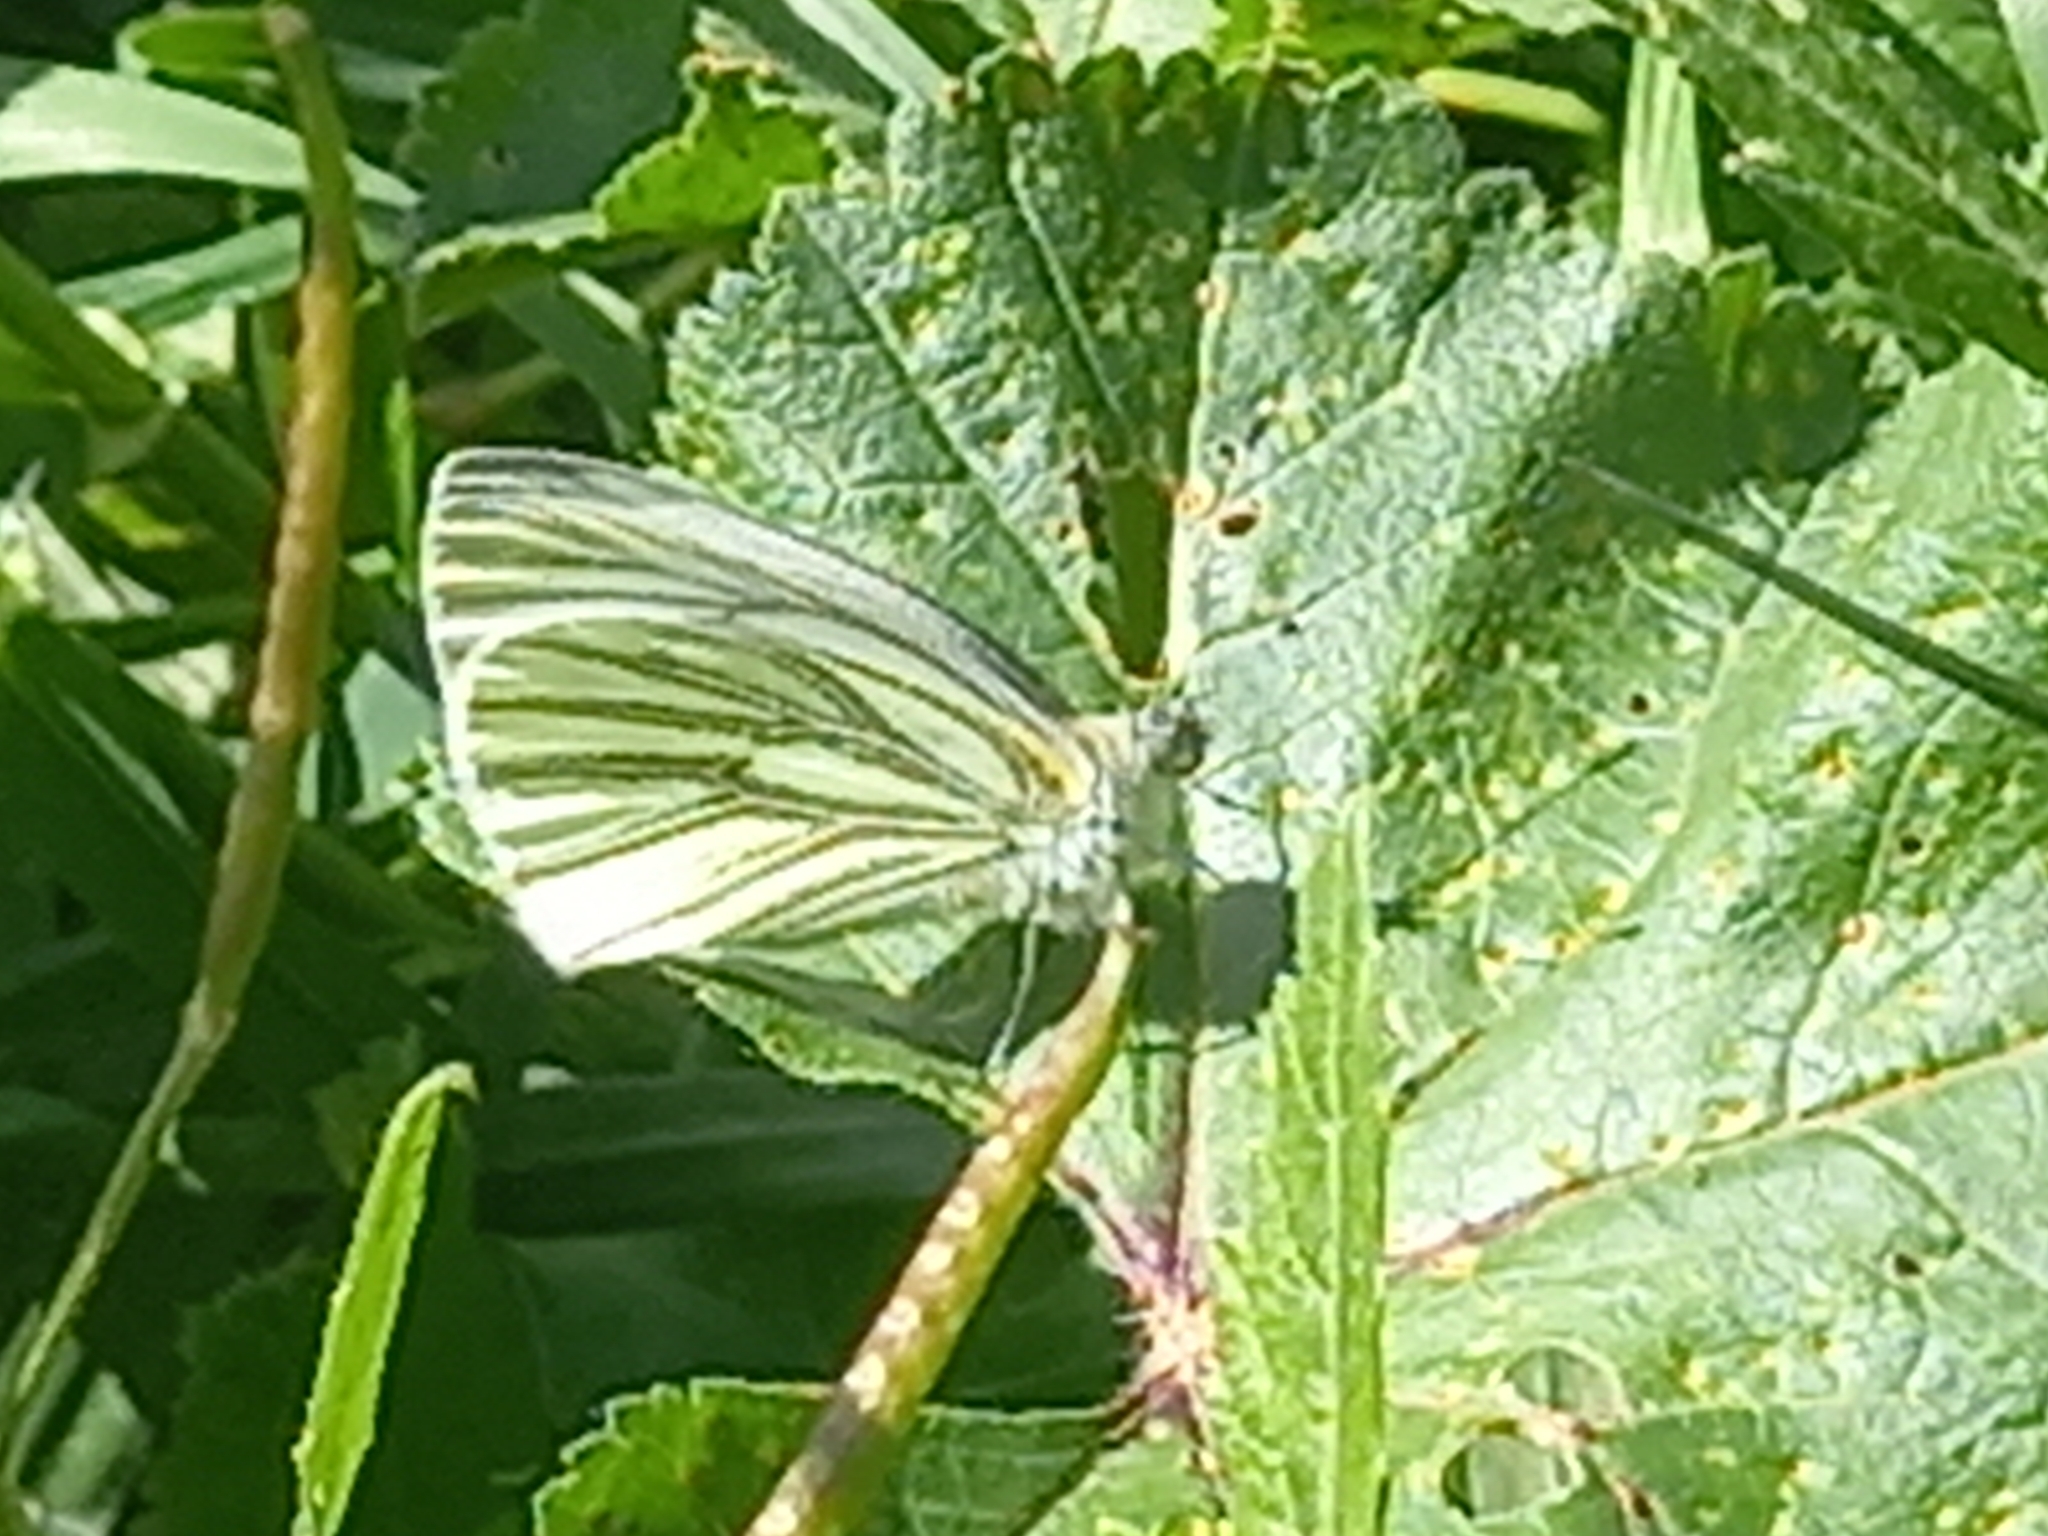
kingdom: Animalia
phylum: Arthropoda
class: Insecta
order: Lepidoptera
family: Pieridae
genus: Pieris
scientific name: Pieris napi
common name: Green-veined white
